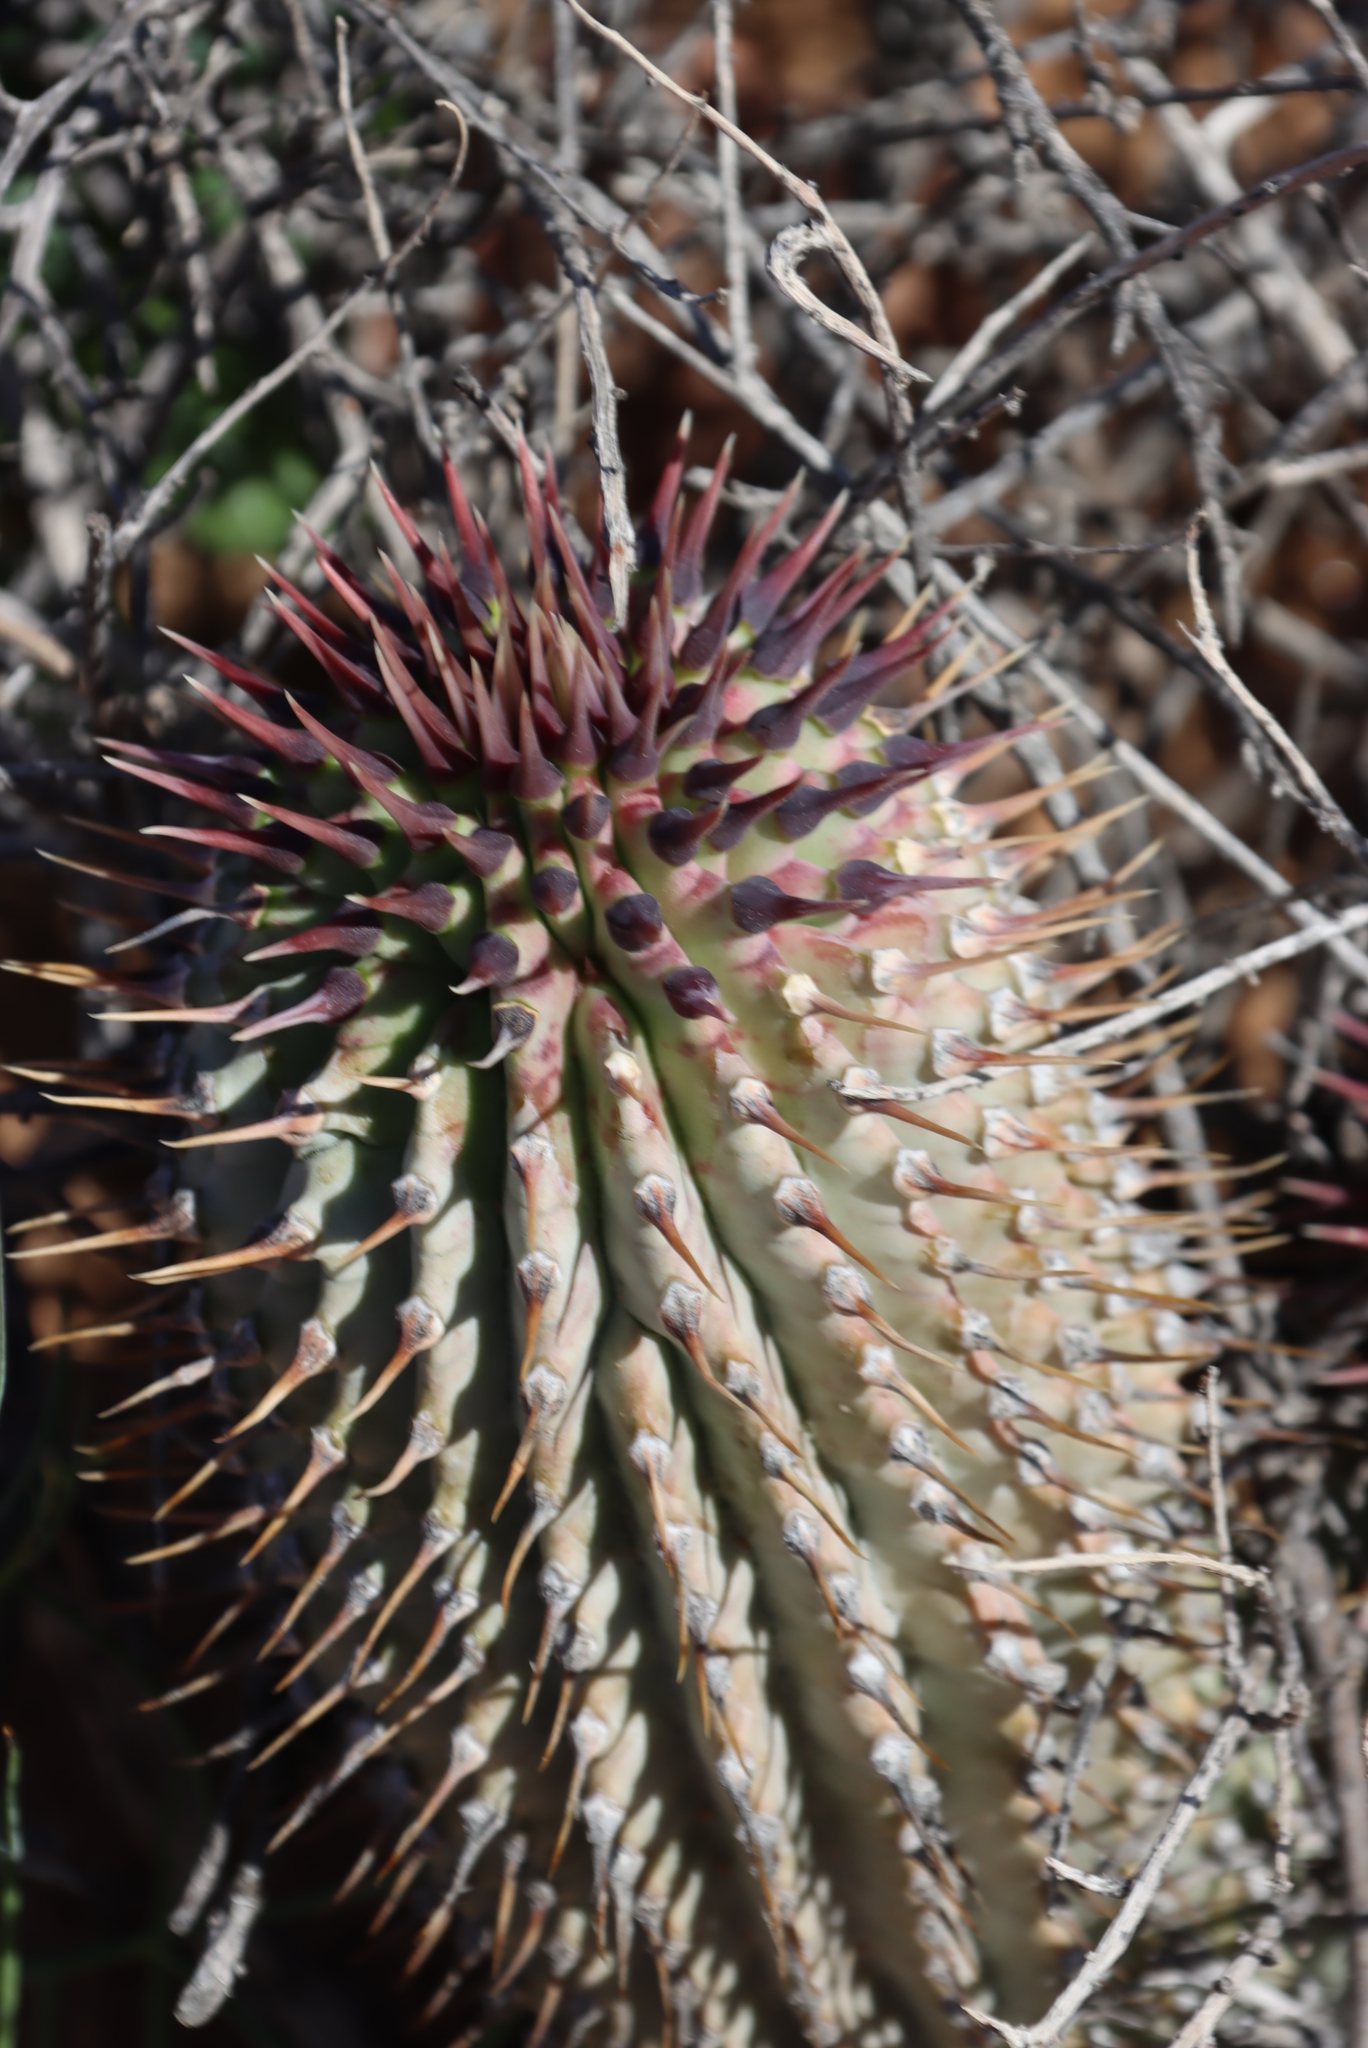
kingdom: Plantae
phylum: Tracheophyta
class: Magnoliopsida
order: Gentianales
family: Apocynaceae
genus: Hoodia
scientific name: Hoodia gordonii
